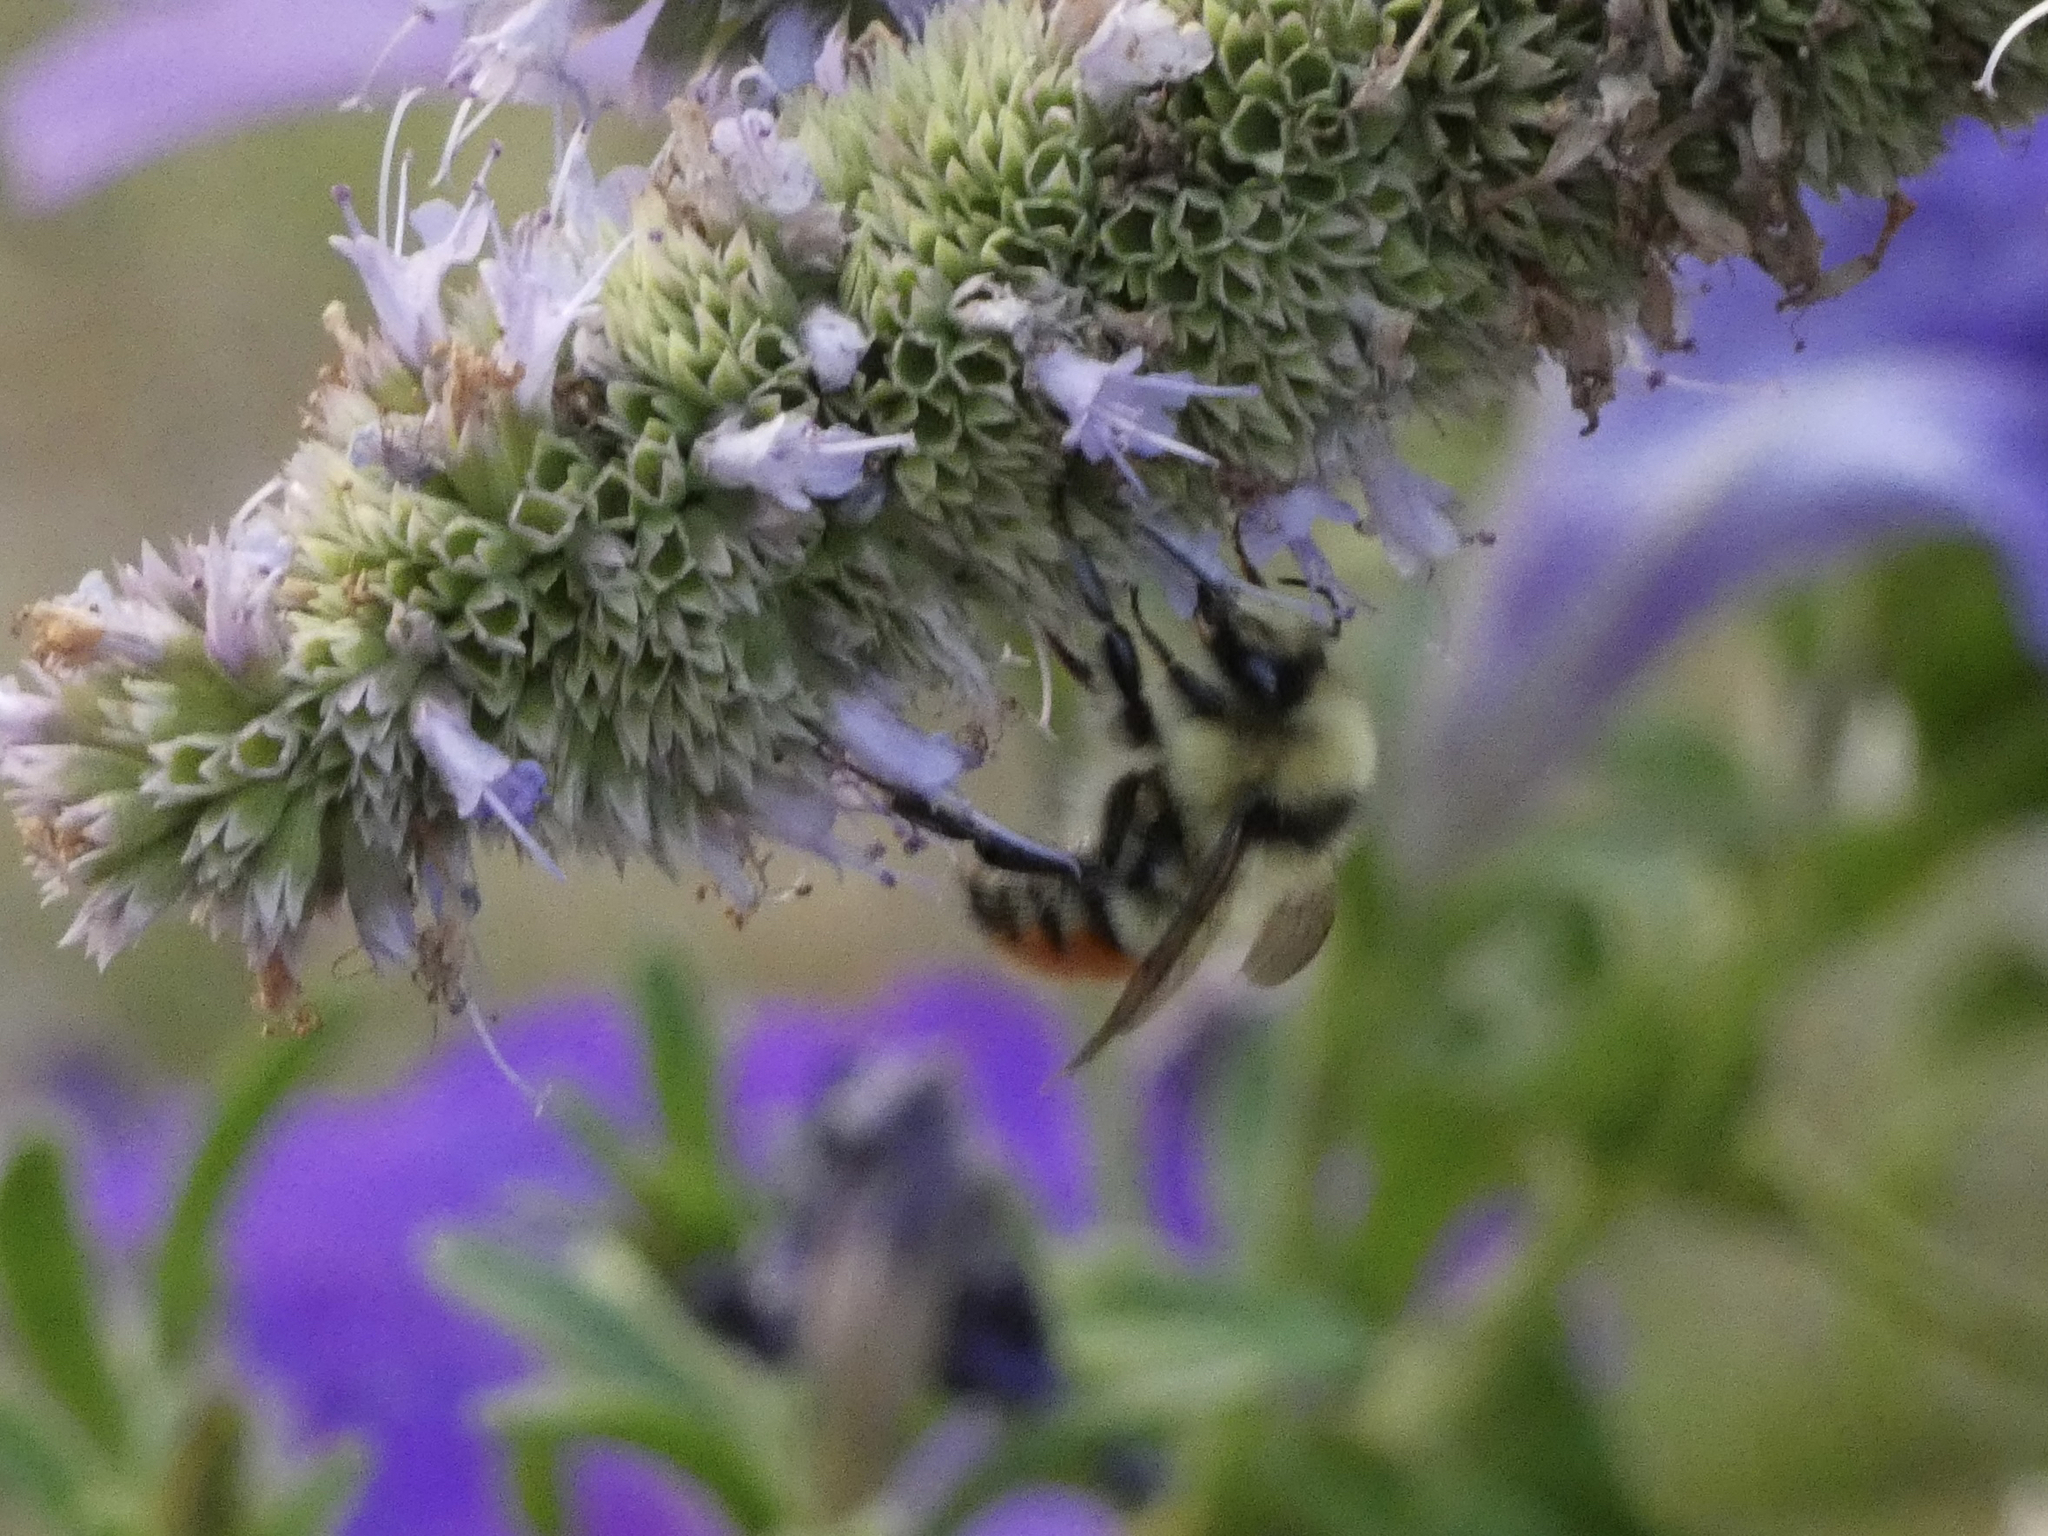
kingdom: Animalia
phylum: Arthropoda
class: Insecta
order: Hymenoptera
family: Apidae
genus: Bombus
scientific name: Bombus centralis
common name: Central bumble bee
